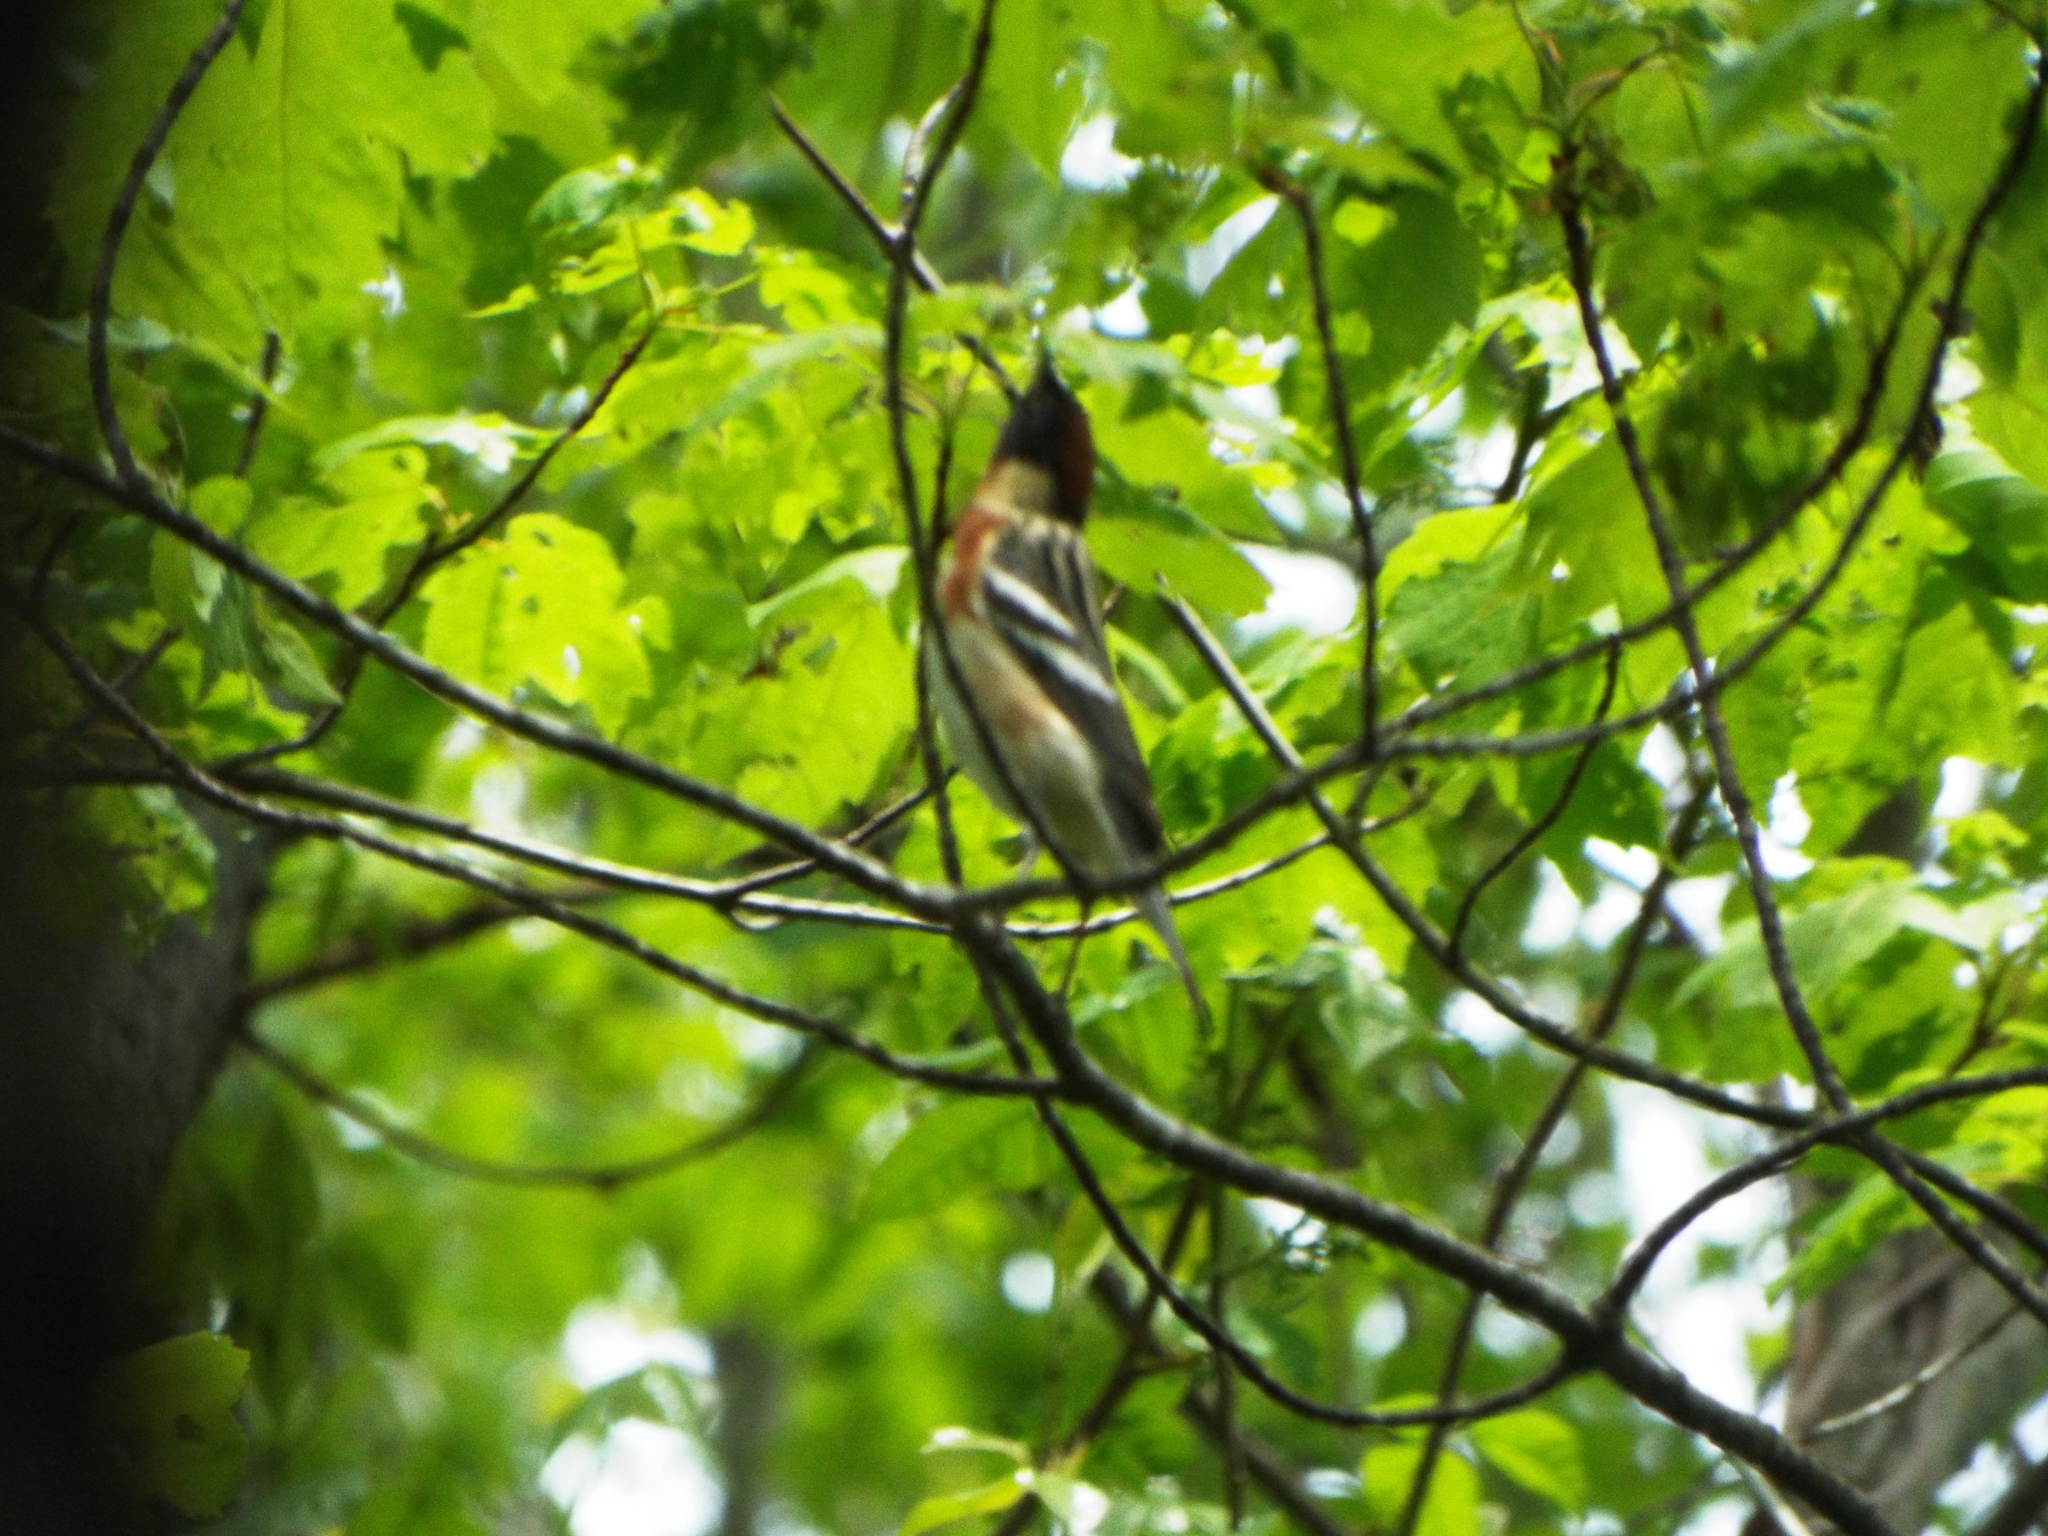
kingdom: Animalia
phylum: Chordata
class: Aves
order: Passeriformes
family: Parulidae
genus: Setophaga
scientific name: Setophaga castanea
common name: Bay-breasted warbler
